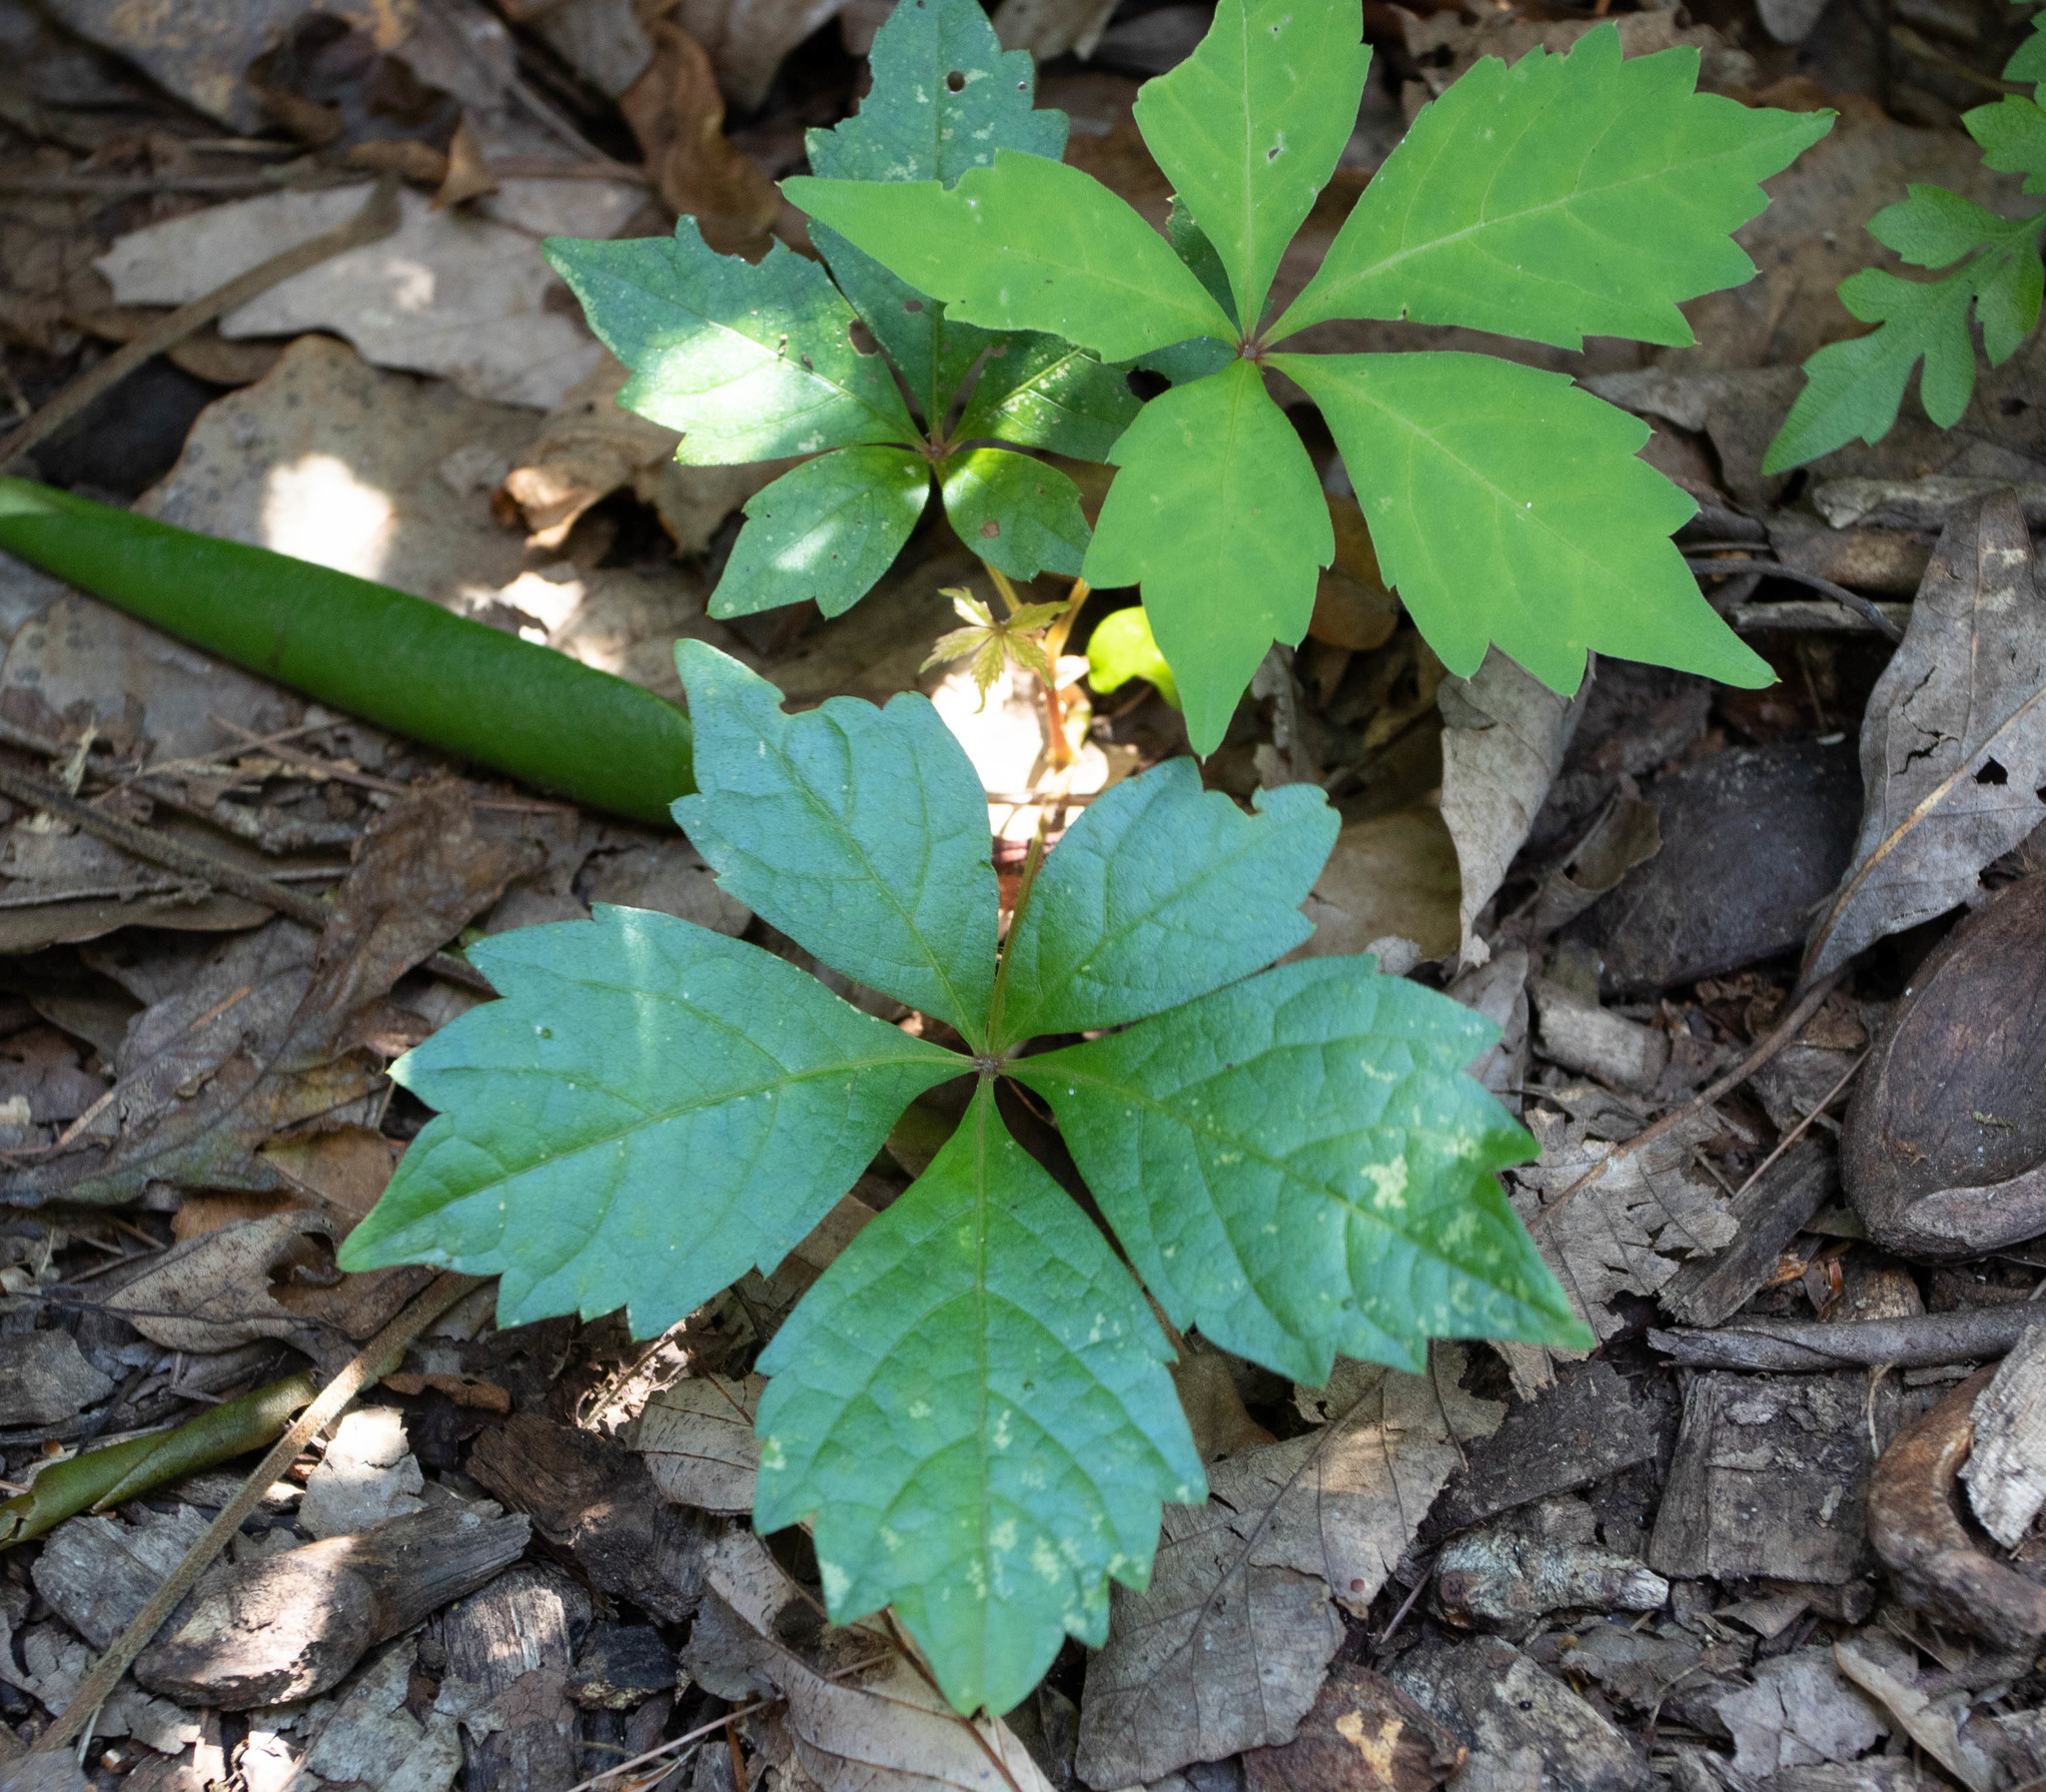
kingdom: Plantae
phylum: Tracheophyta
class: Magnoliopsida
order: Vitales
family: Vitaceae
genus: Parthenocissus
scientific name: Parthenocissus quinquefolia
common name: Virginia-creeper
